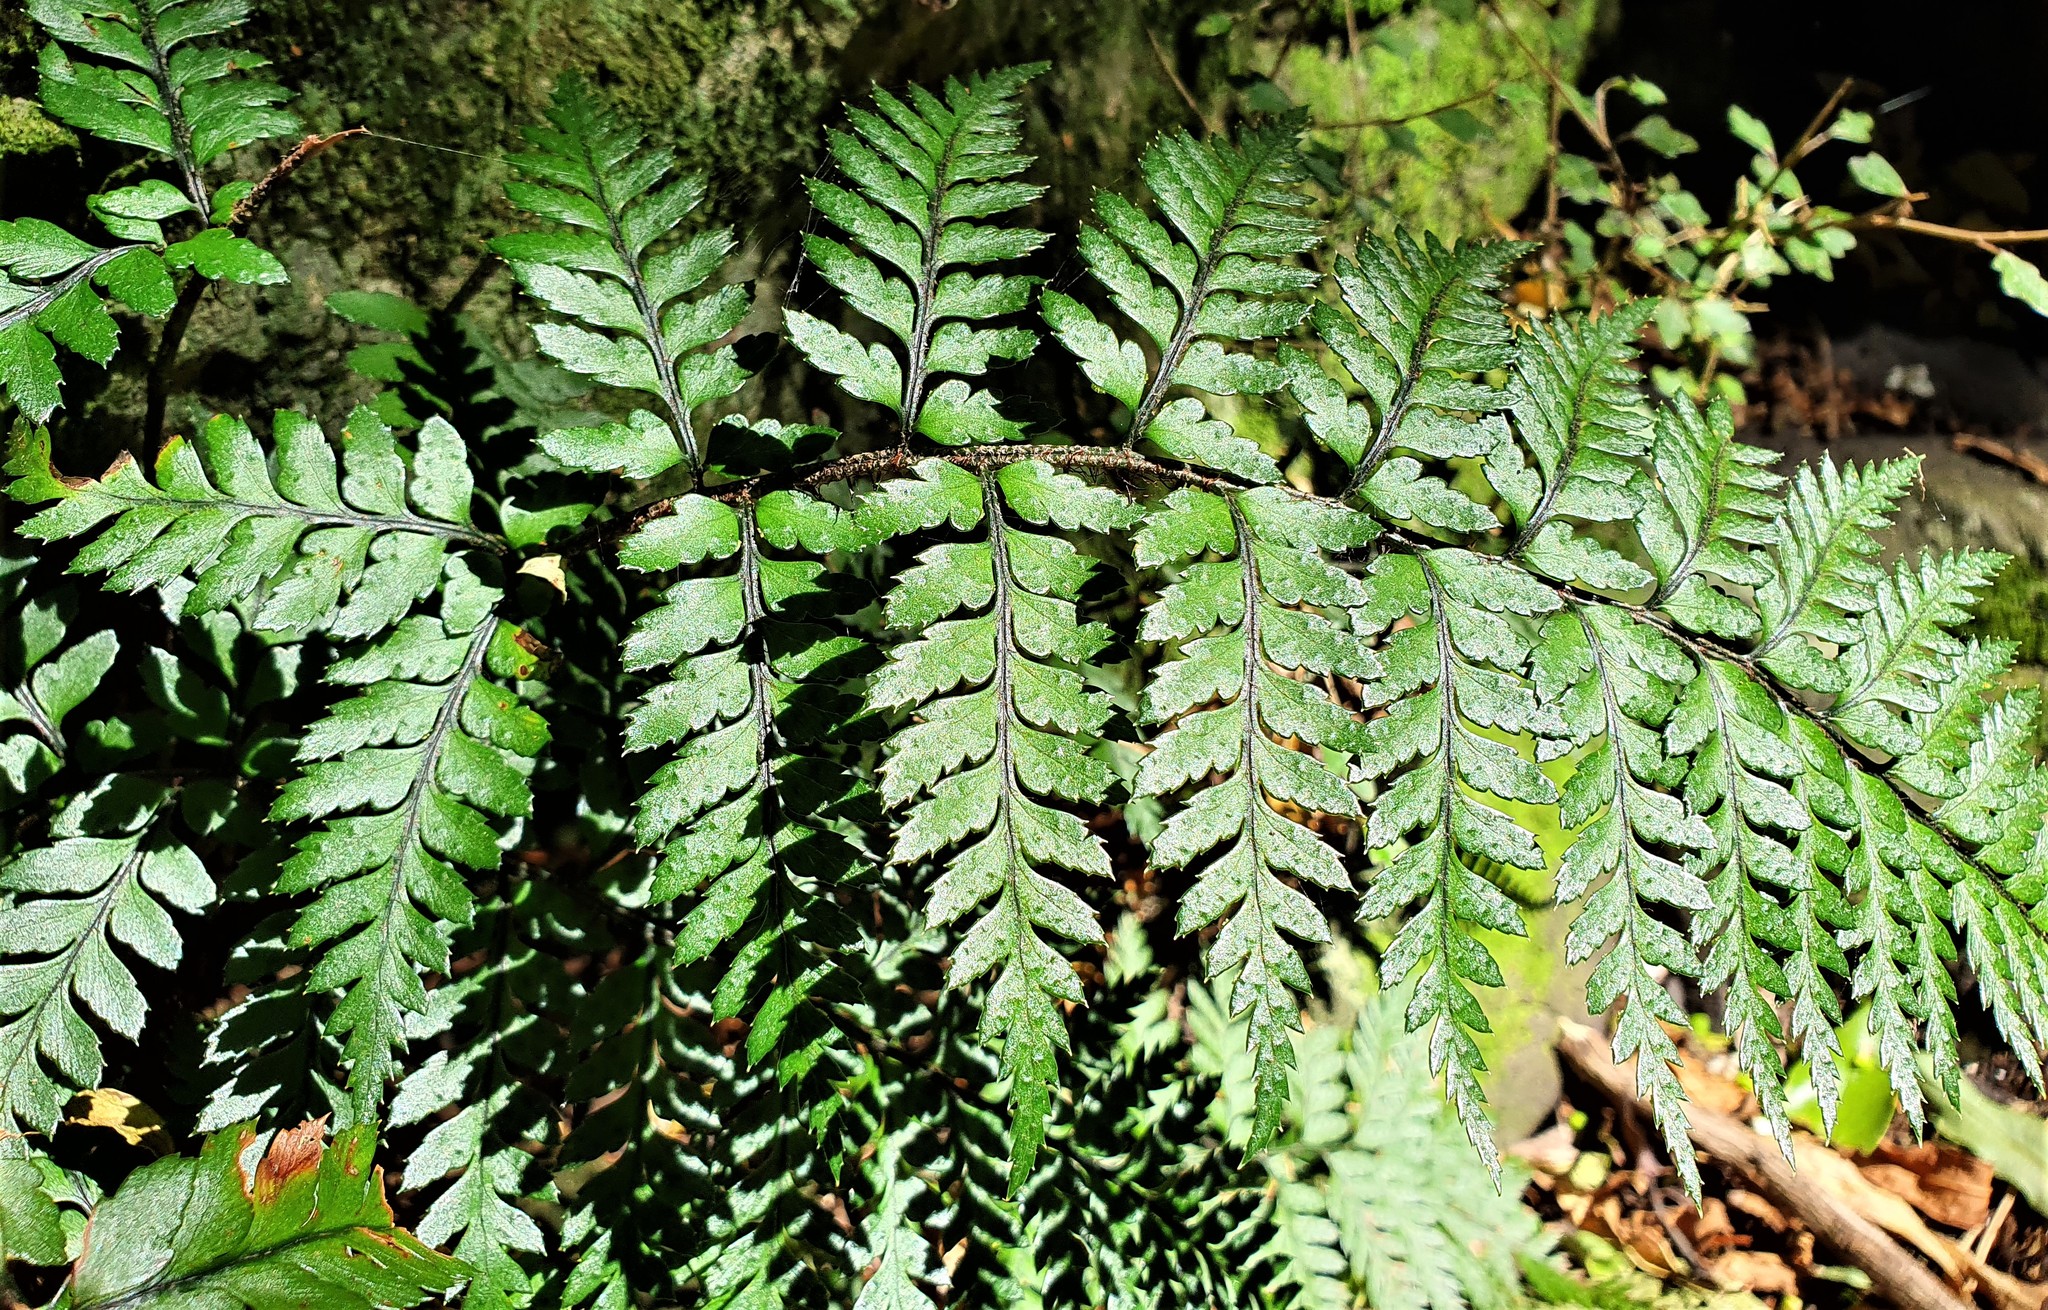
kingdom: Plantae
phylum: Tracheophyta
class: Polypodiopsida
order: Polypodiales
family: Dryopteridaceae
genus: Polystichum
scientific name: Polystichum neozelandicum
